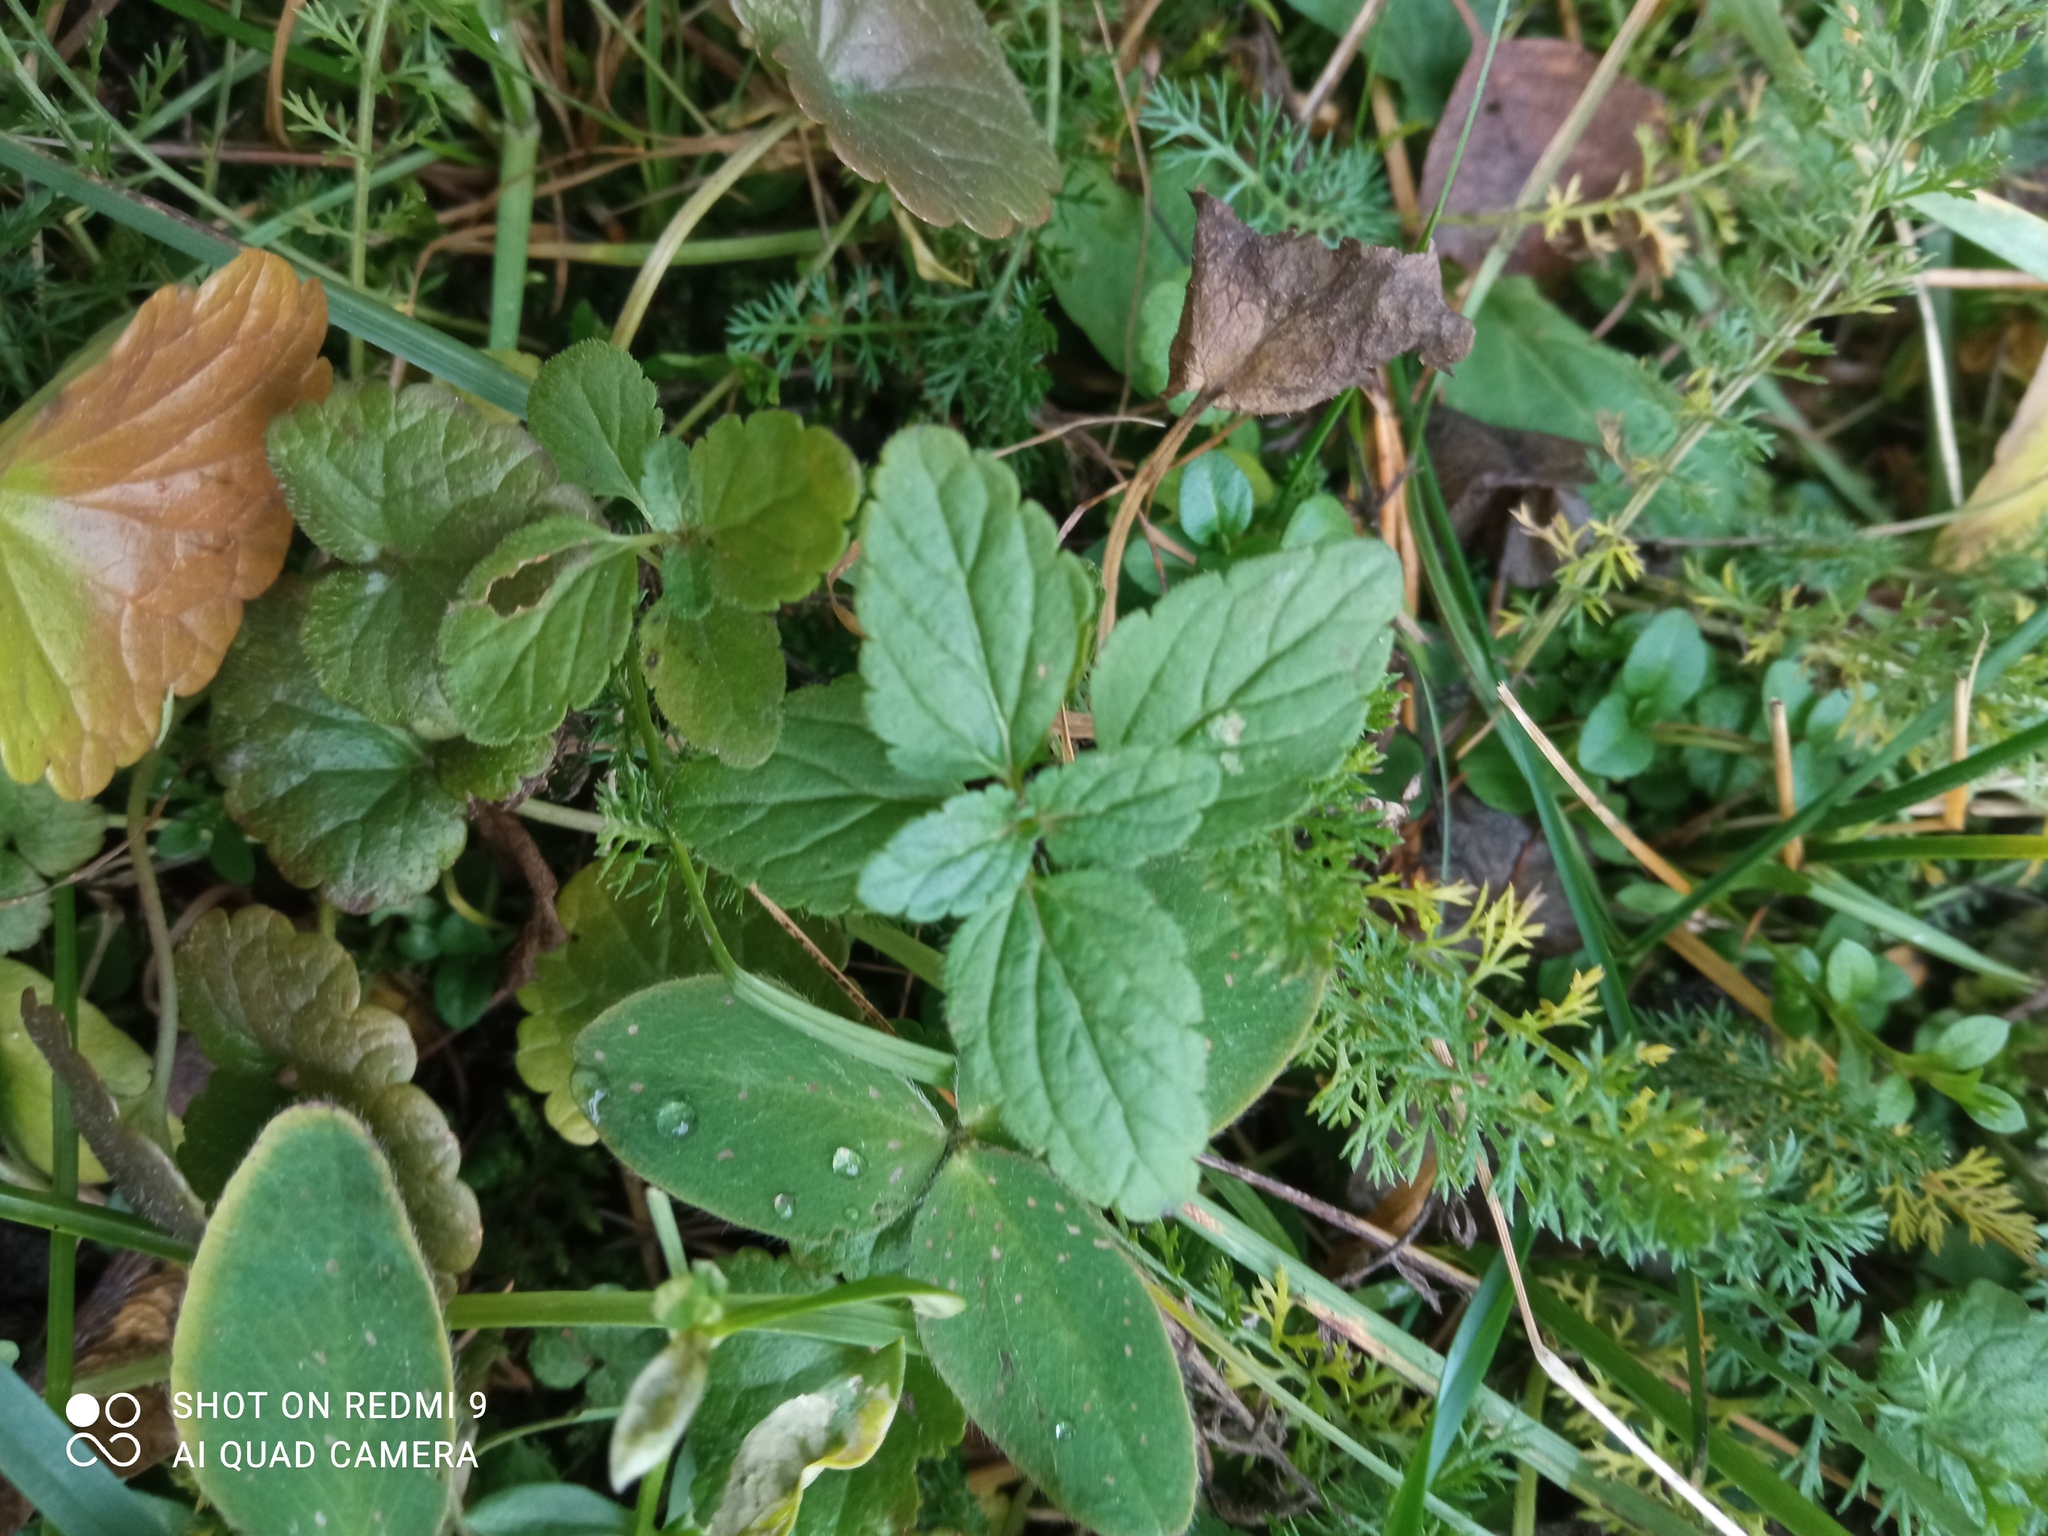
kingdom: Plantae
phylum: Tracheophyta
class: Magnoliopsida
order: Lamiales
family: Plantaginaceae
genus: Veronica
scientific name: Veronica chamaedrys
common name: Germander speedwell
